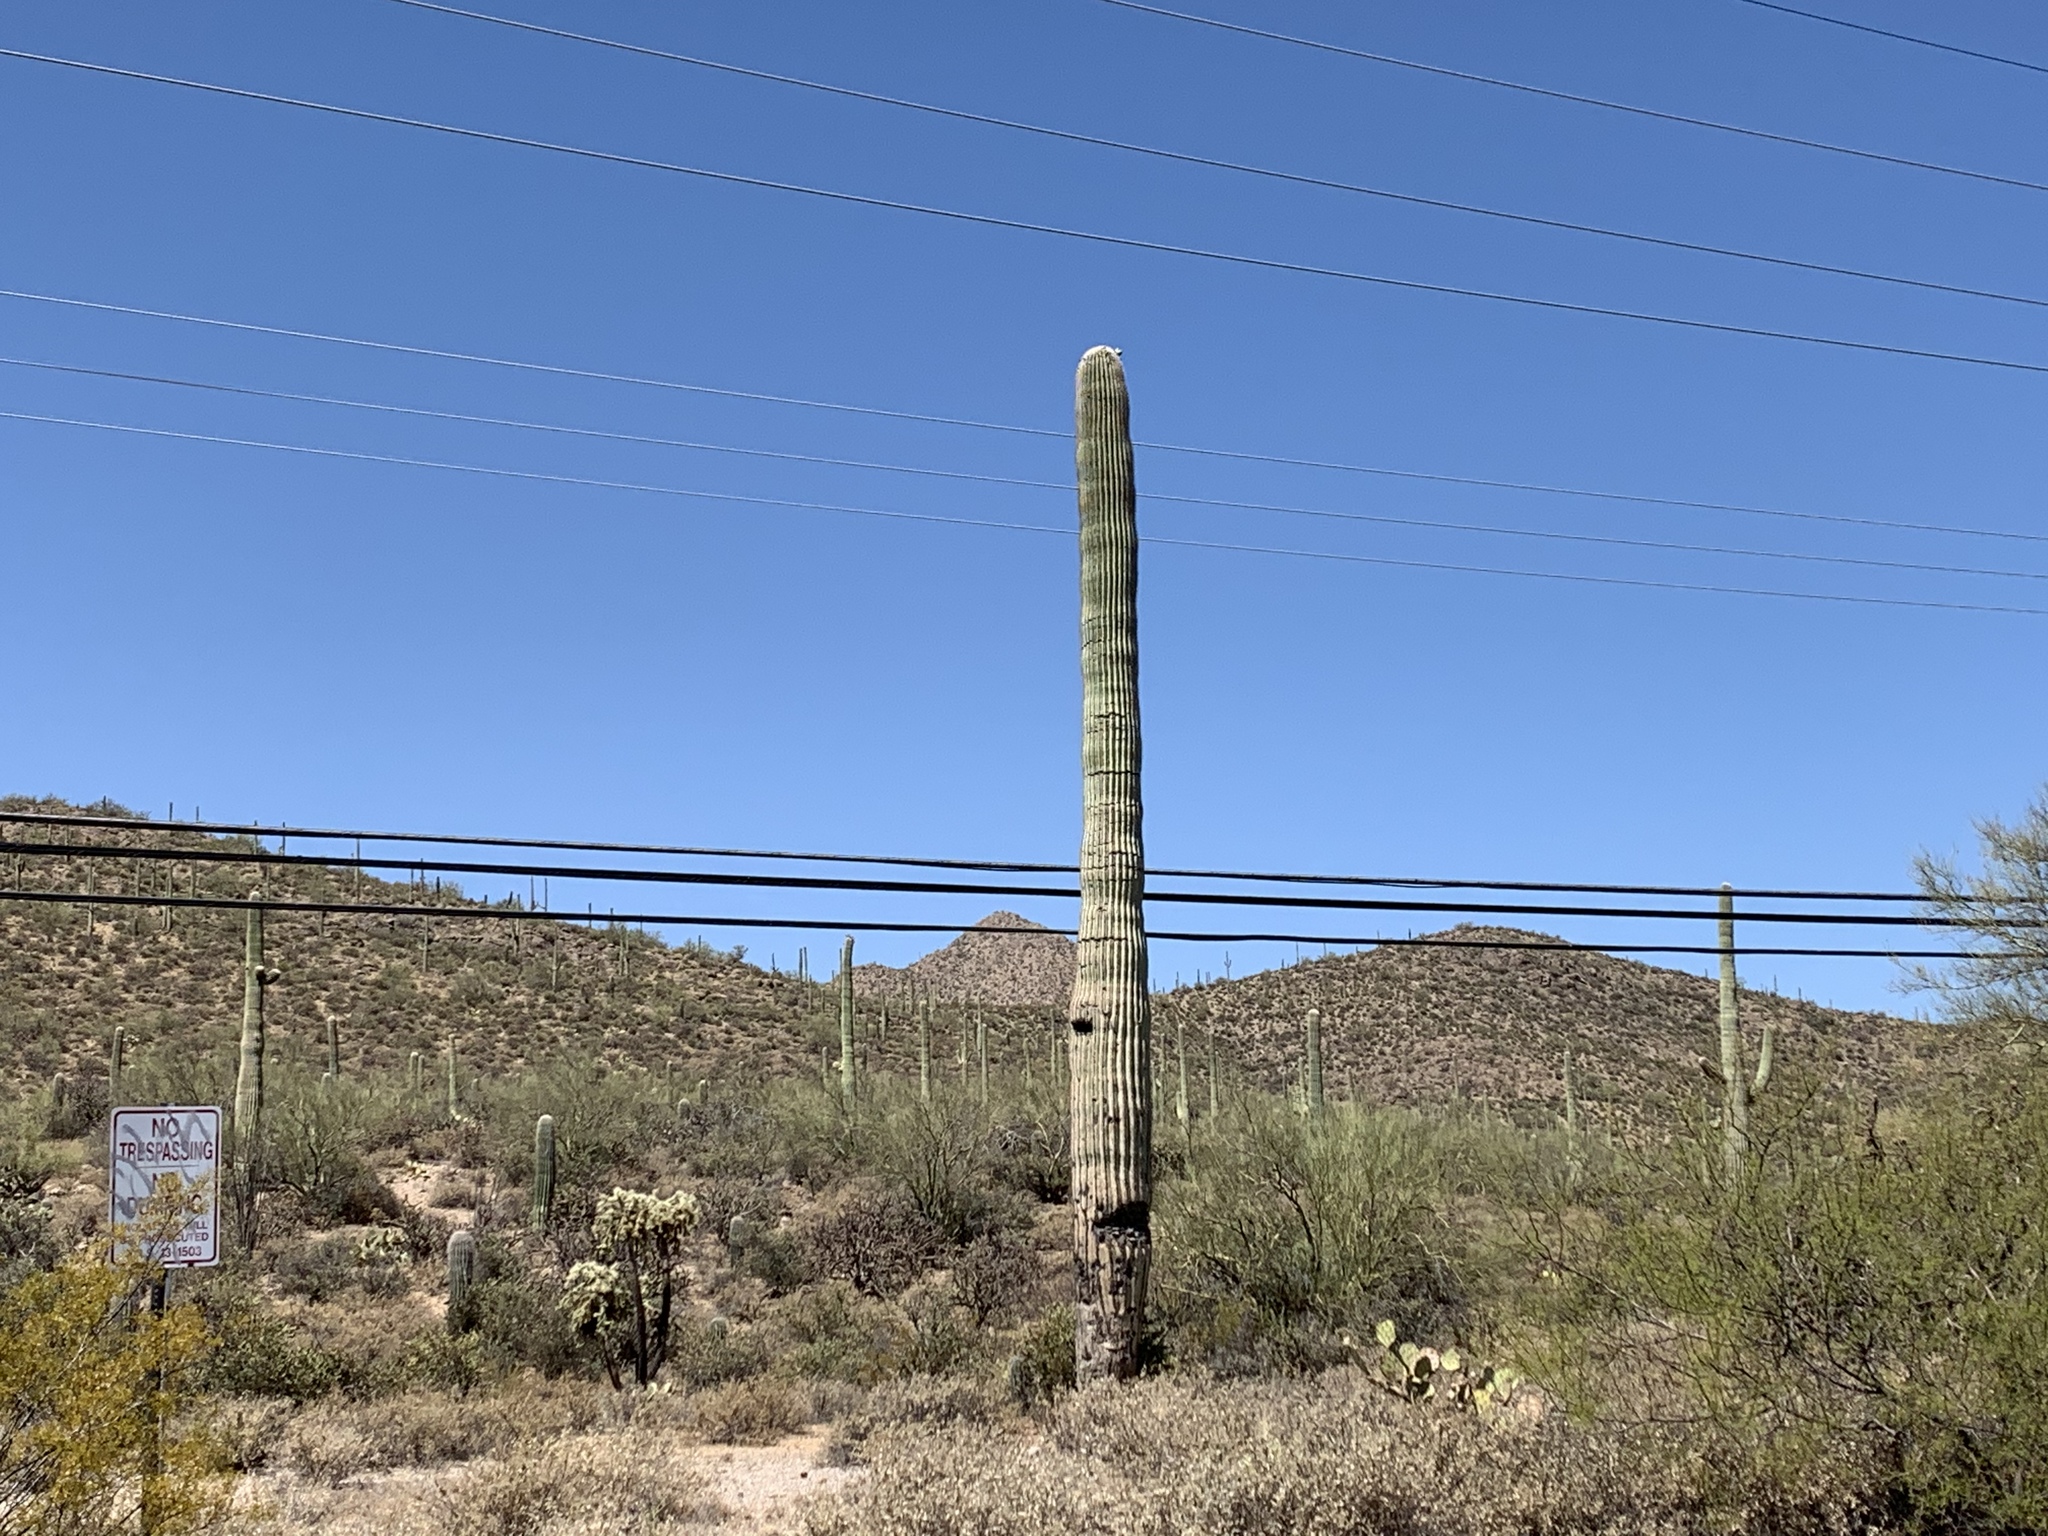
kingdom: Plantae
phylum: Tracheophyta
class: Magnoliopsida
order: Caryophyllales
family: Cactaceae
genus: Carnegiea
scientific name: Carnegiea gigantea
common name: Saguaro
